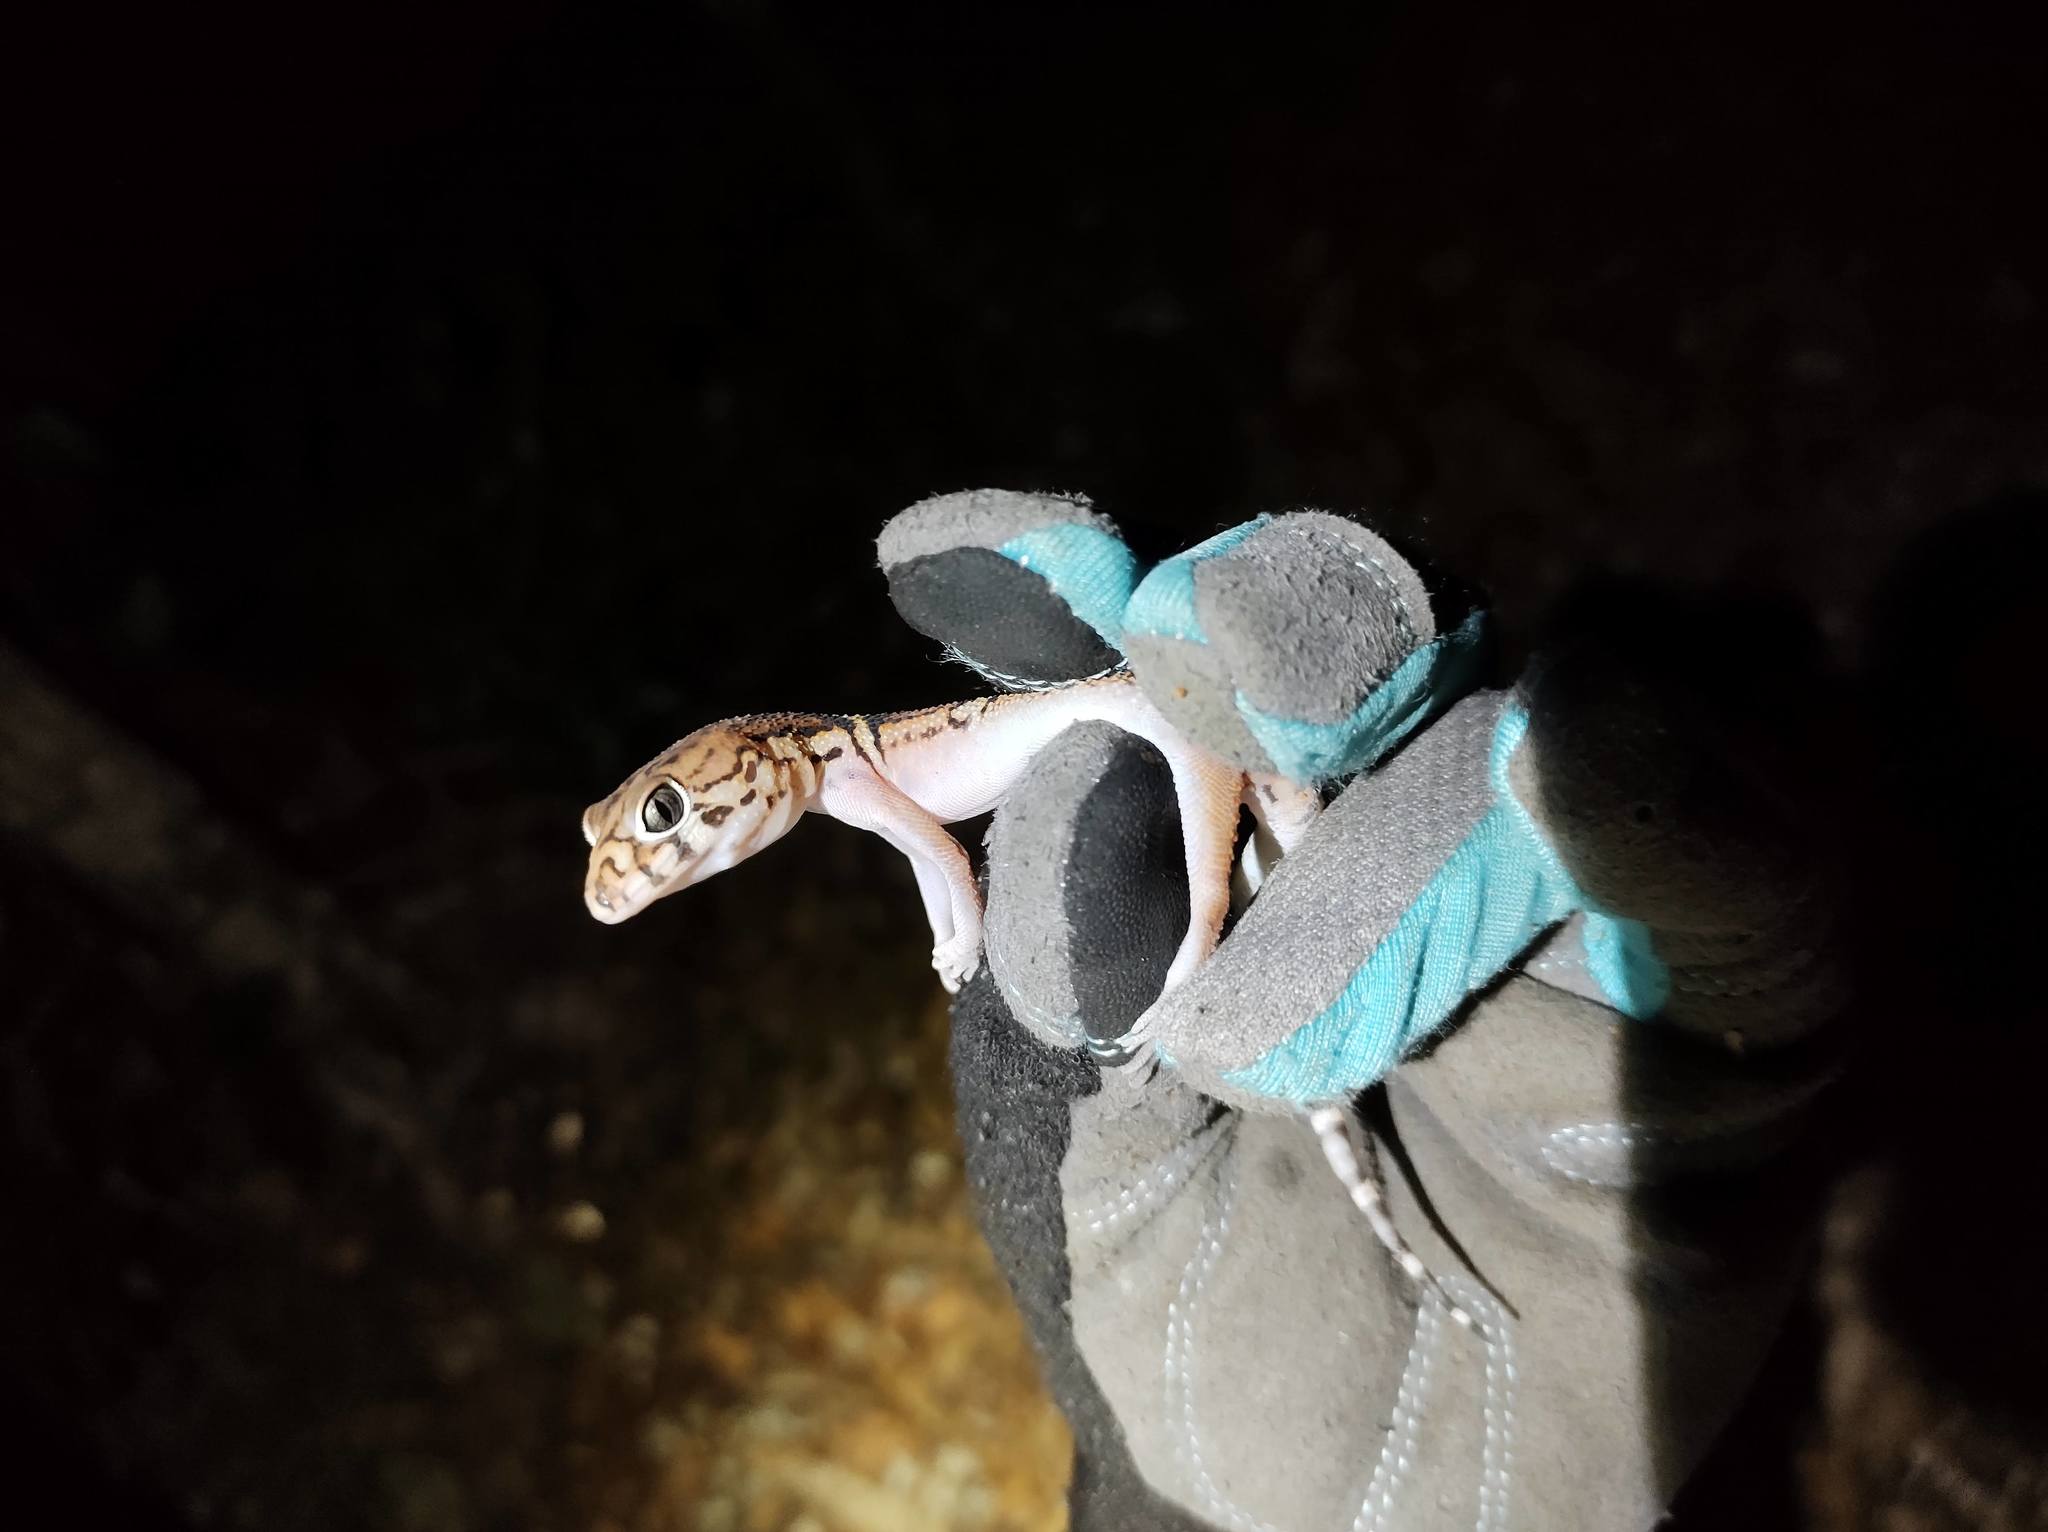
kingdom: Animalia
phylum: Chordata
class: Squamata
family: Eublepharidae
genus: Coleonyx
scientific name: Coleonyx elegans
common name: Yucatan banded gecko
